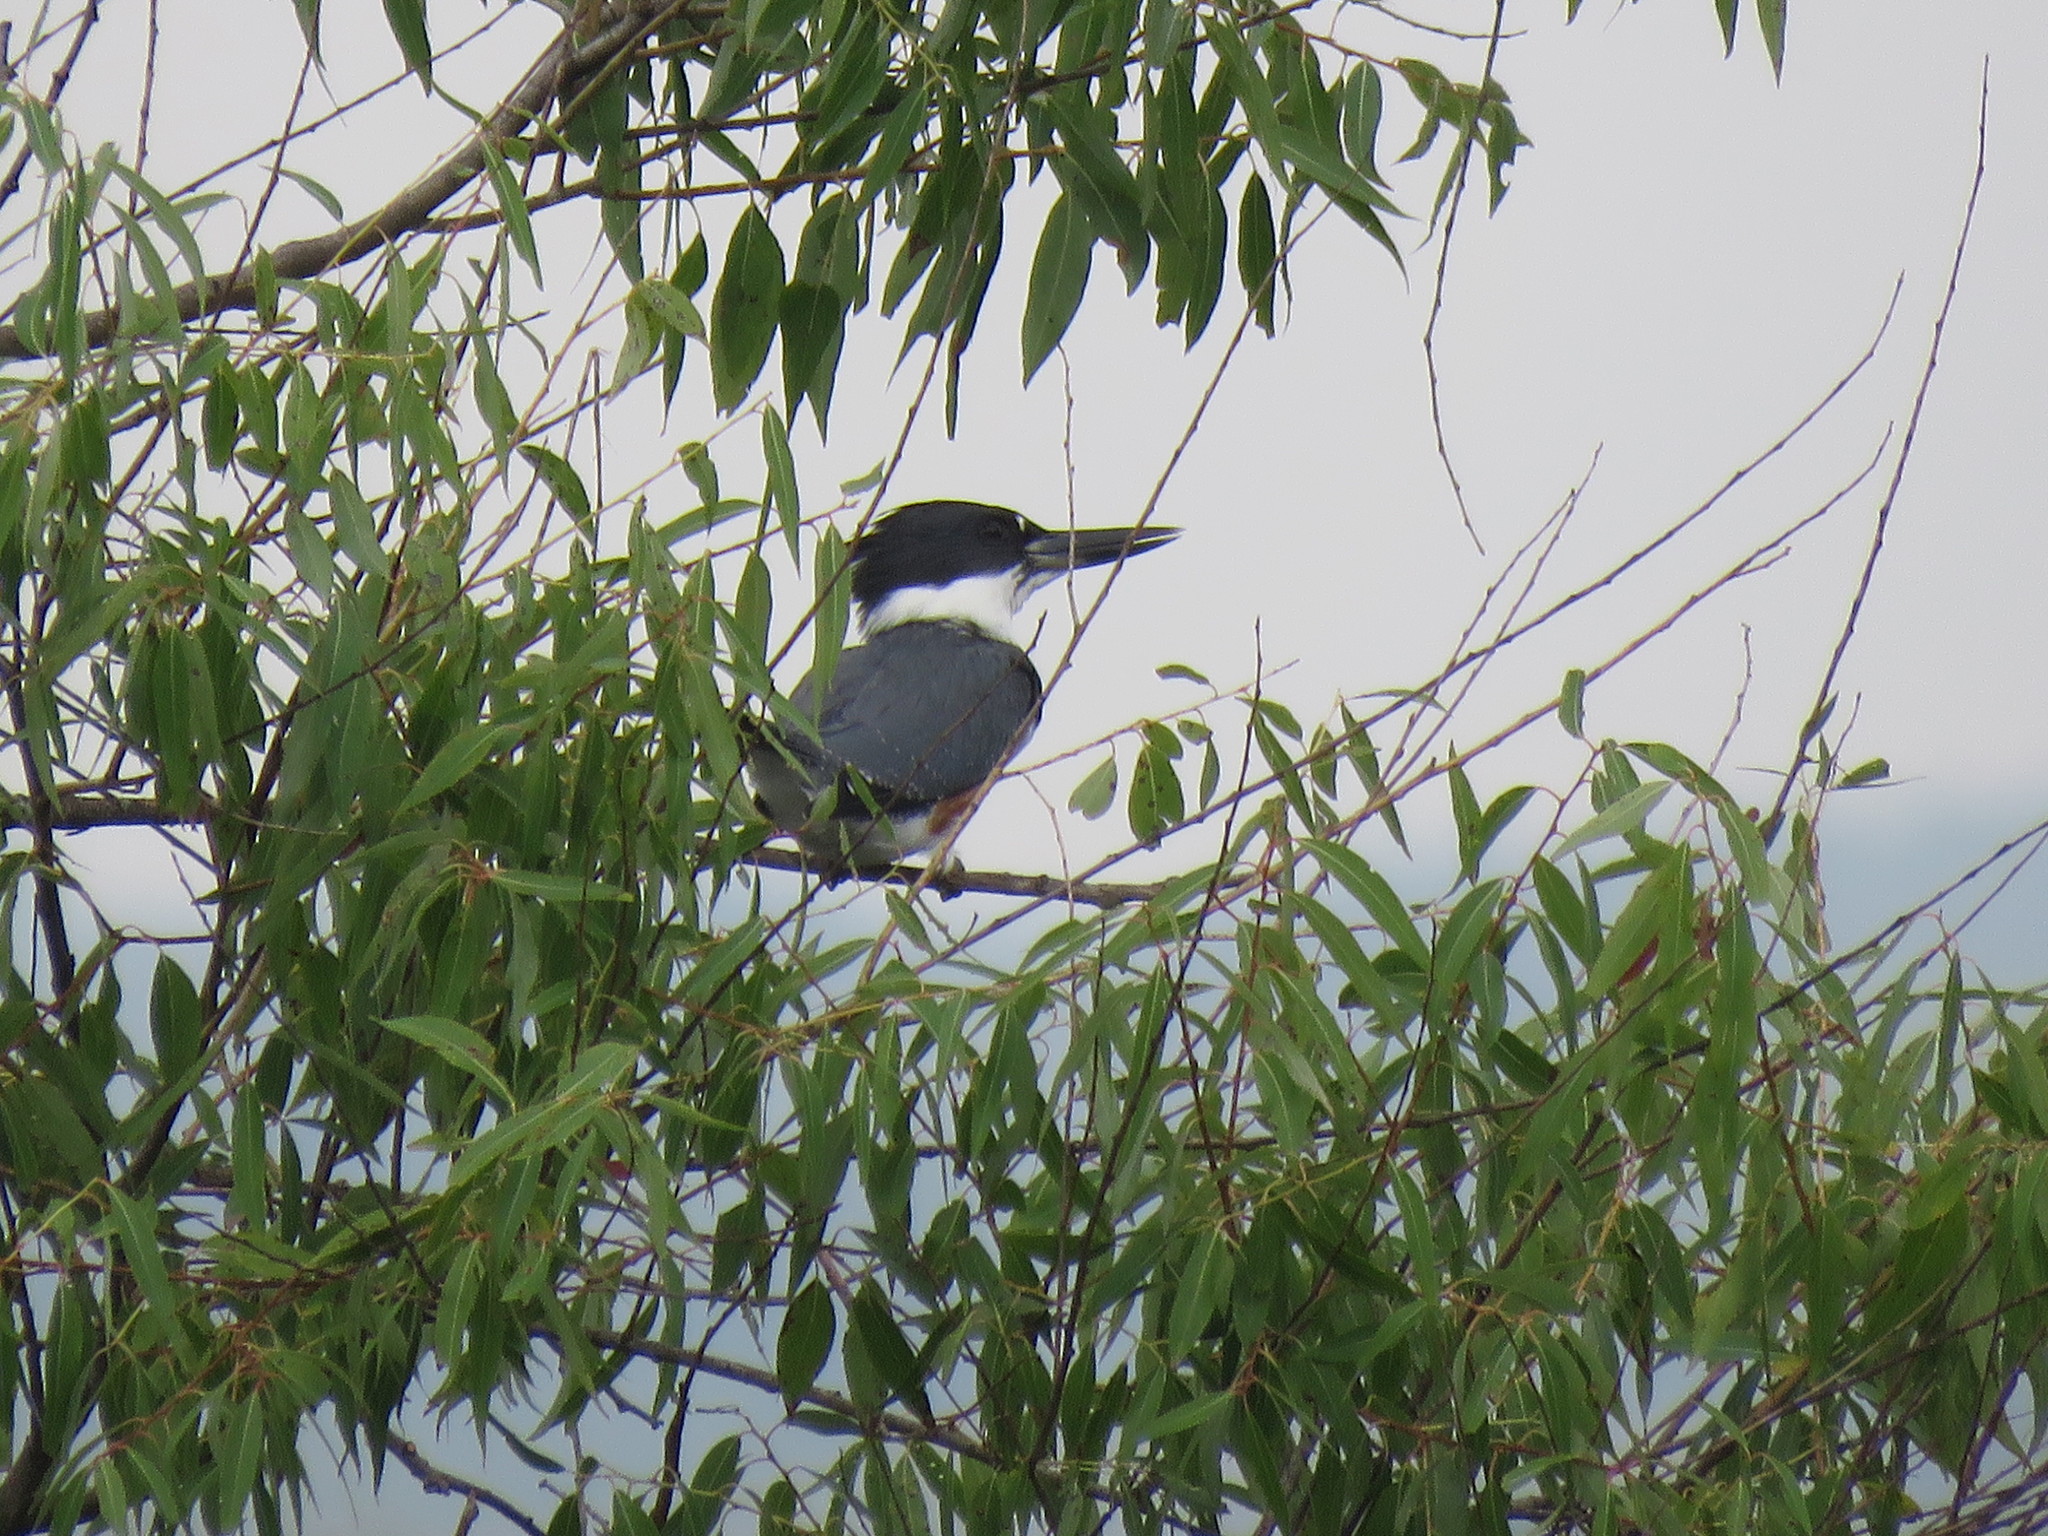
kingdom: Animalia
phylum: Chordata
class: Aves
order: Coraciiformes
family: Alcedinidae
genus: Megaceryle
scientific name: Megaceryle alcyon
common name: Belted kingfisher
